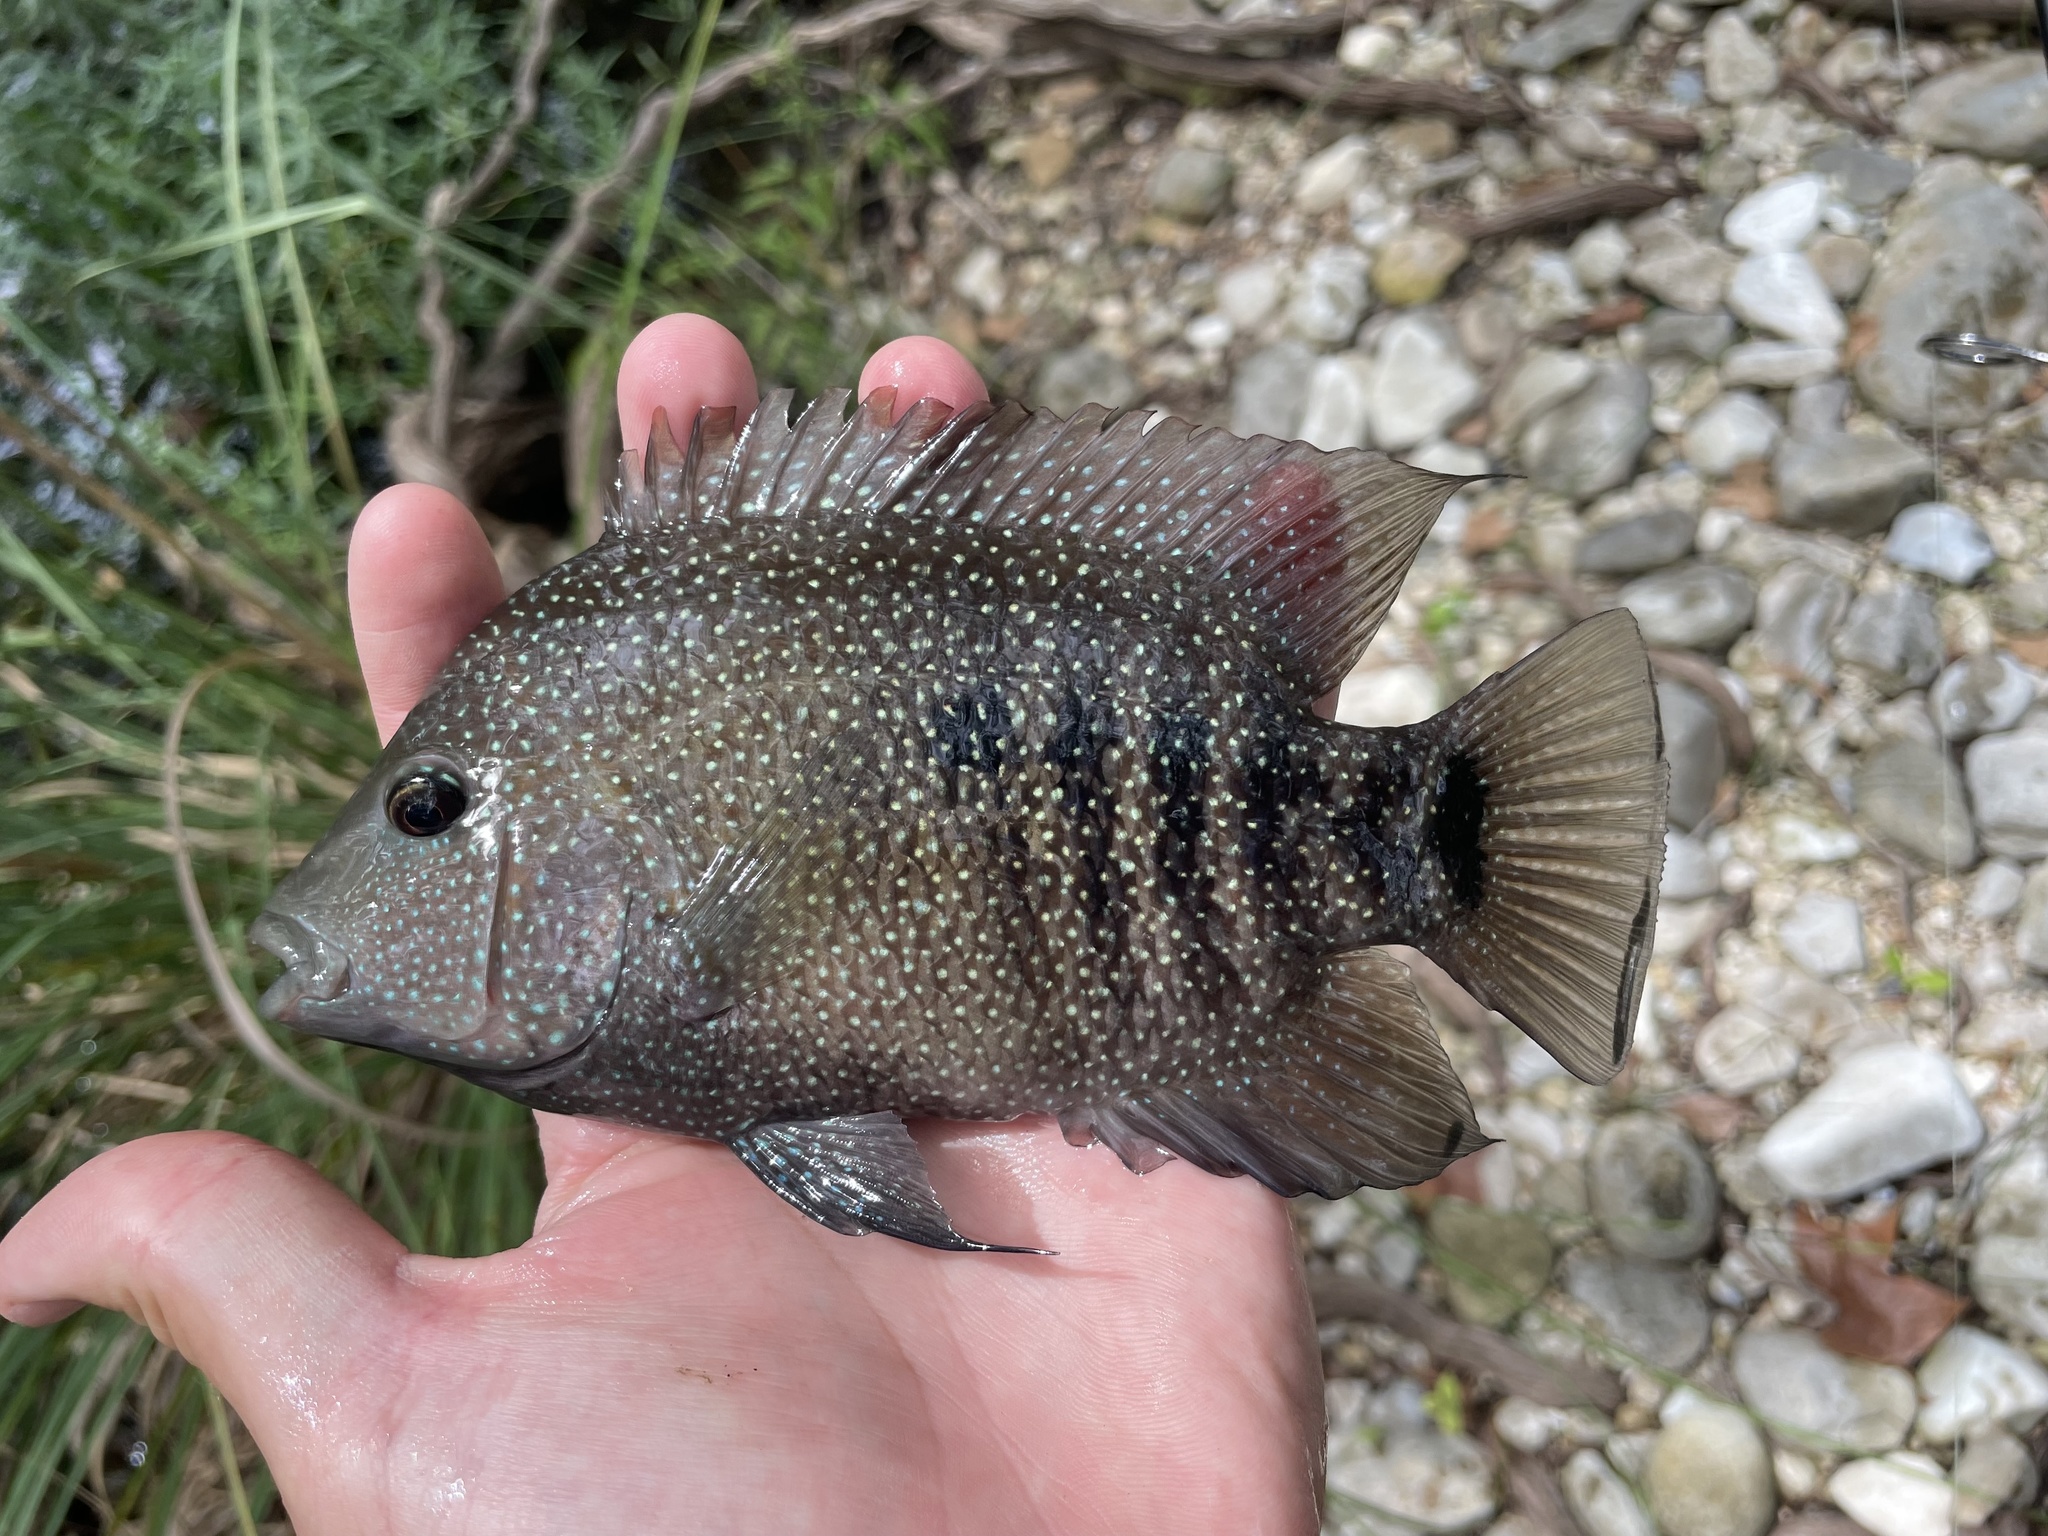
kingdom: Animalia
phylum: Chordata
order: Perciformes
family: Cichlidae
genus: Herichthys
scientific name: Herichthys cyanoguttatus
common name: Rio grande cichlid
